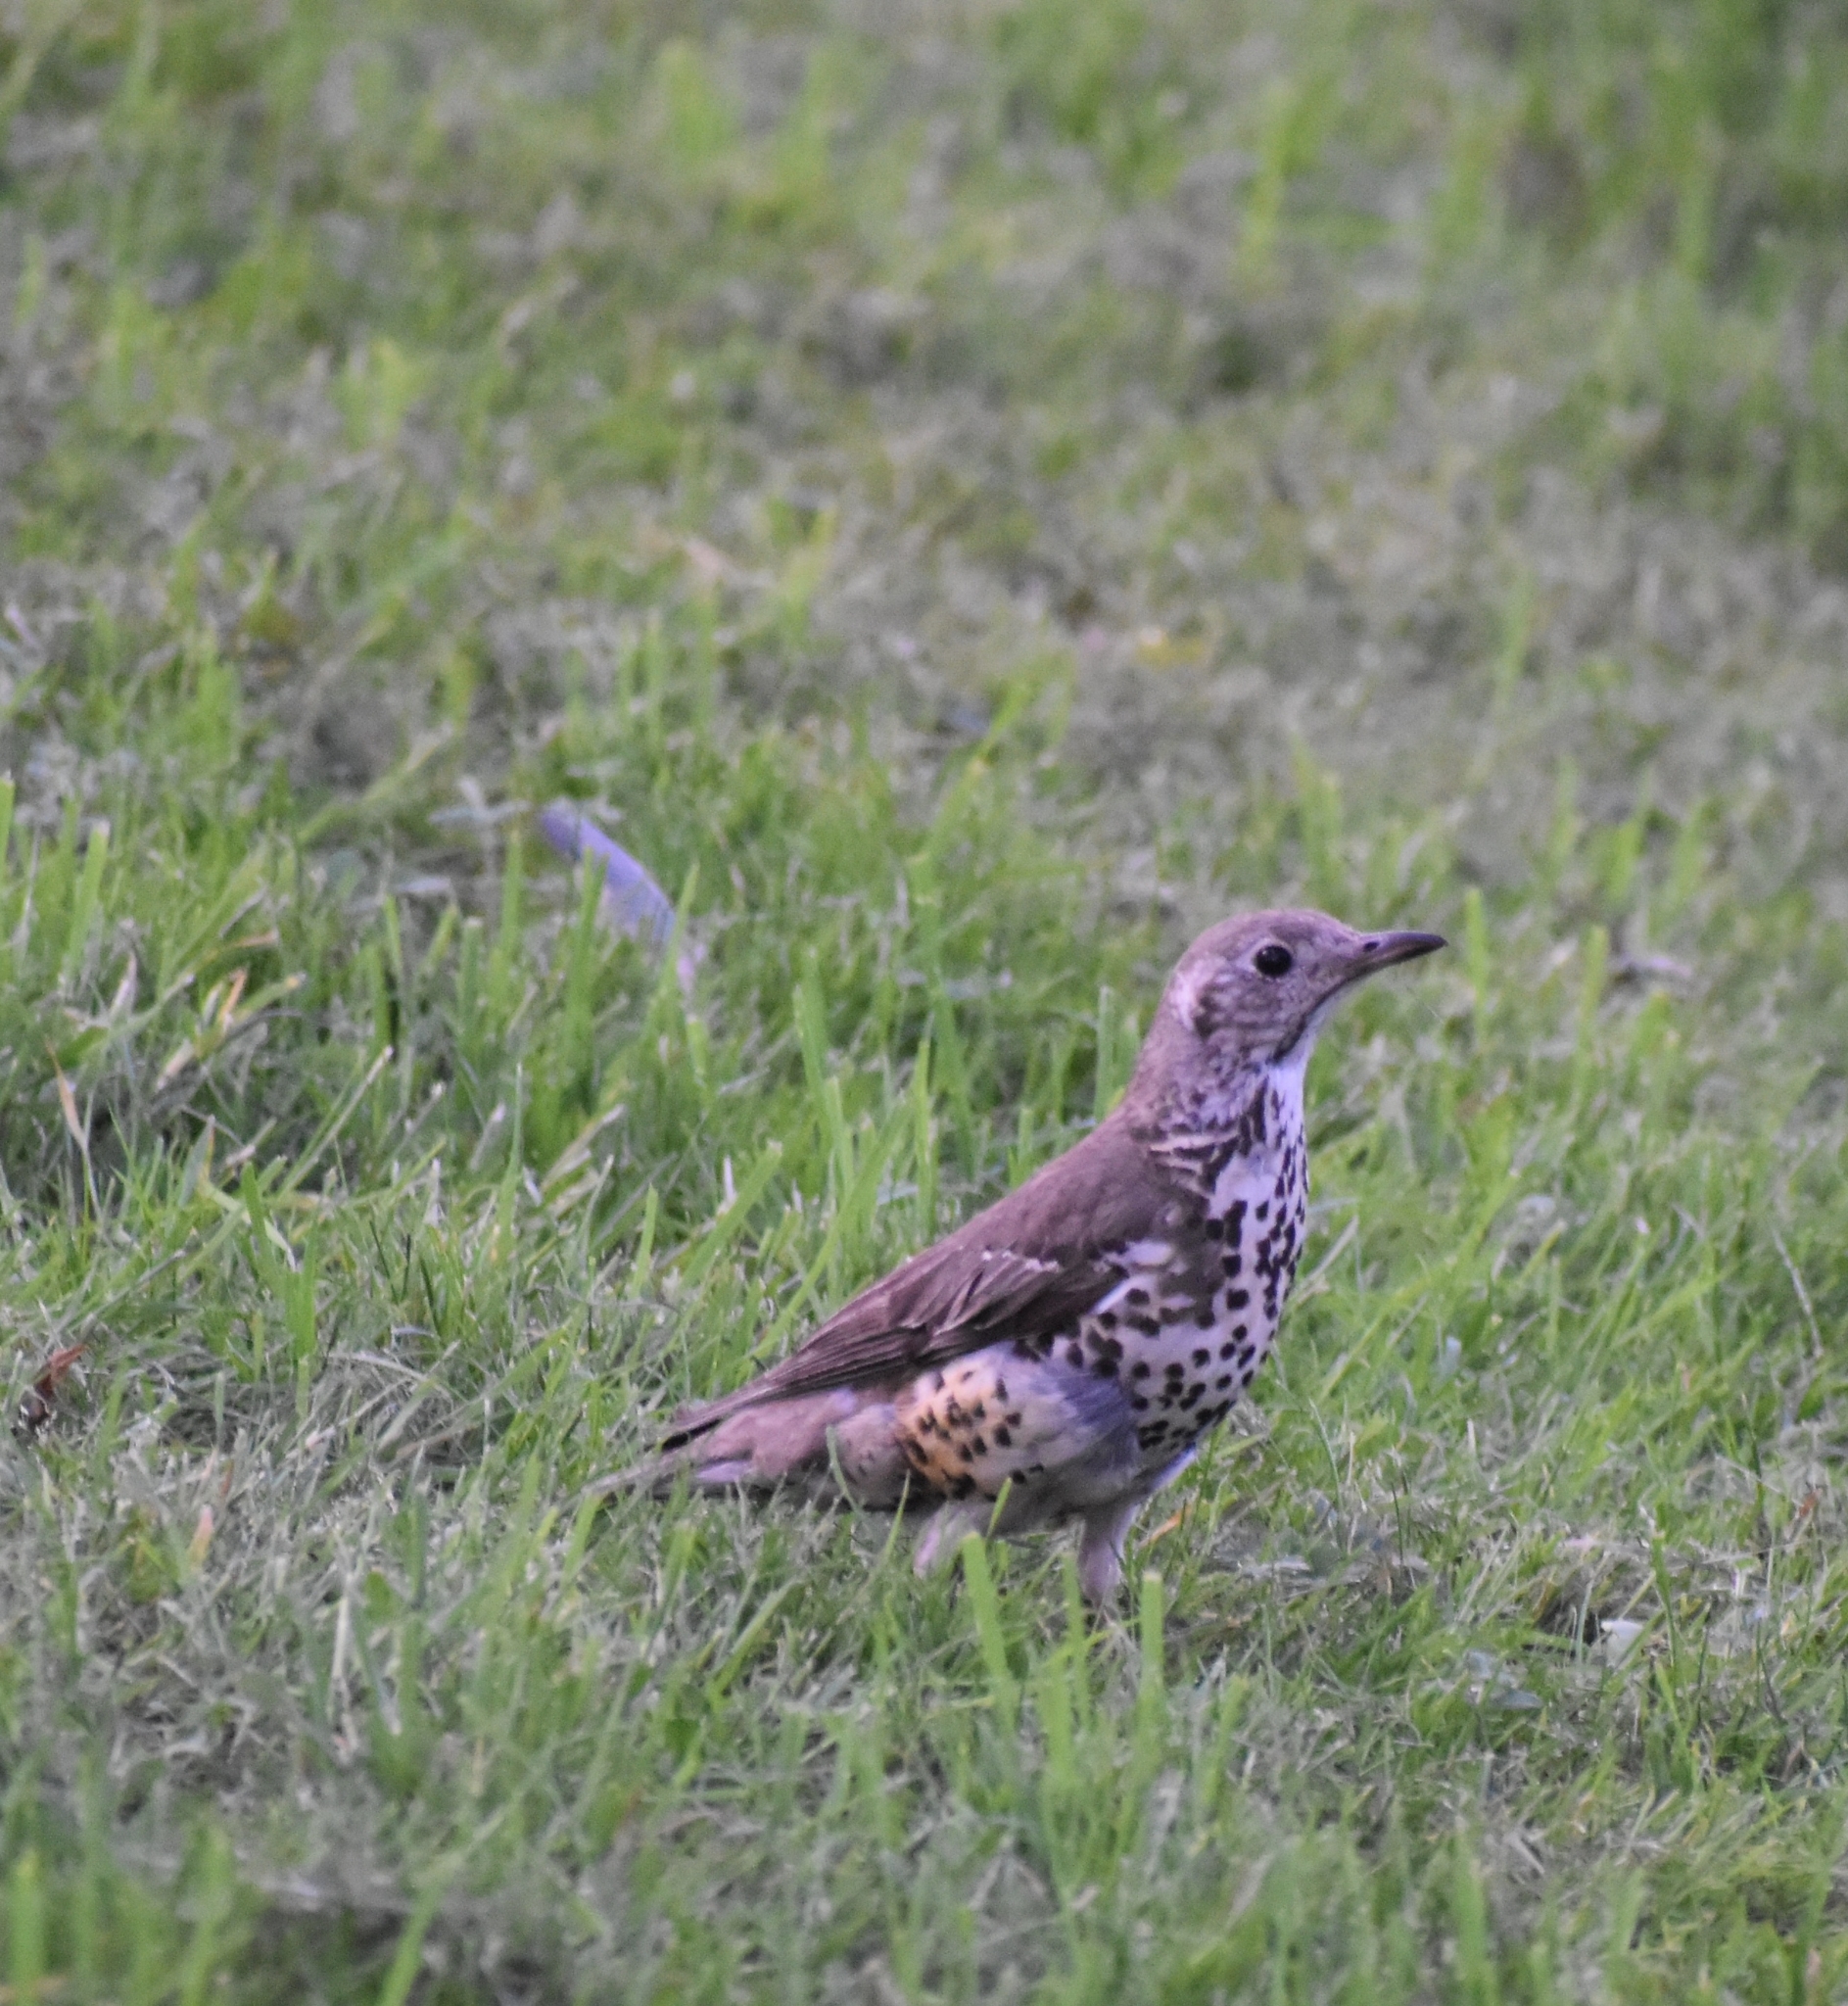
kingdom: Animalia
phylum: Chordata
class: Aves
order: Passeriformes
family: Turdidae
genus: Turdus
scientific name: Turdus viscivorus
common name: Mistle thrush
